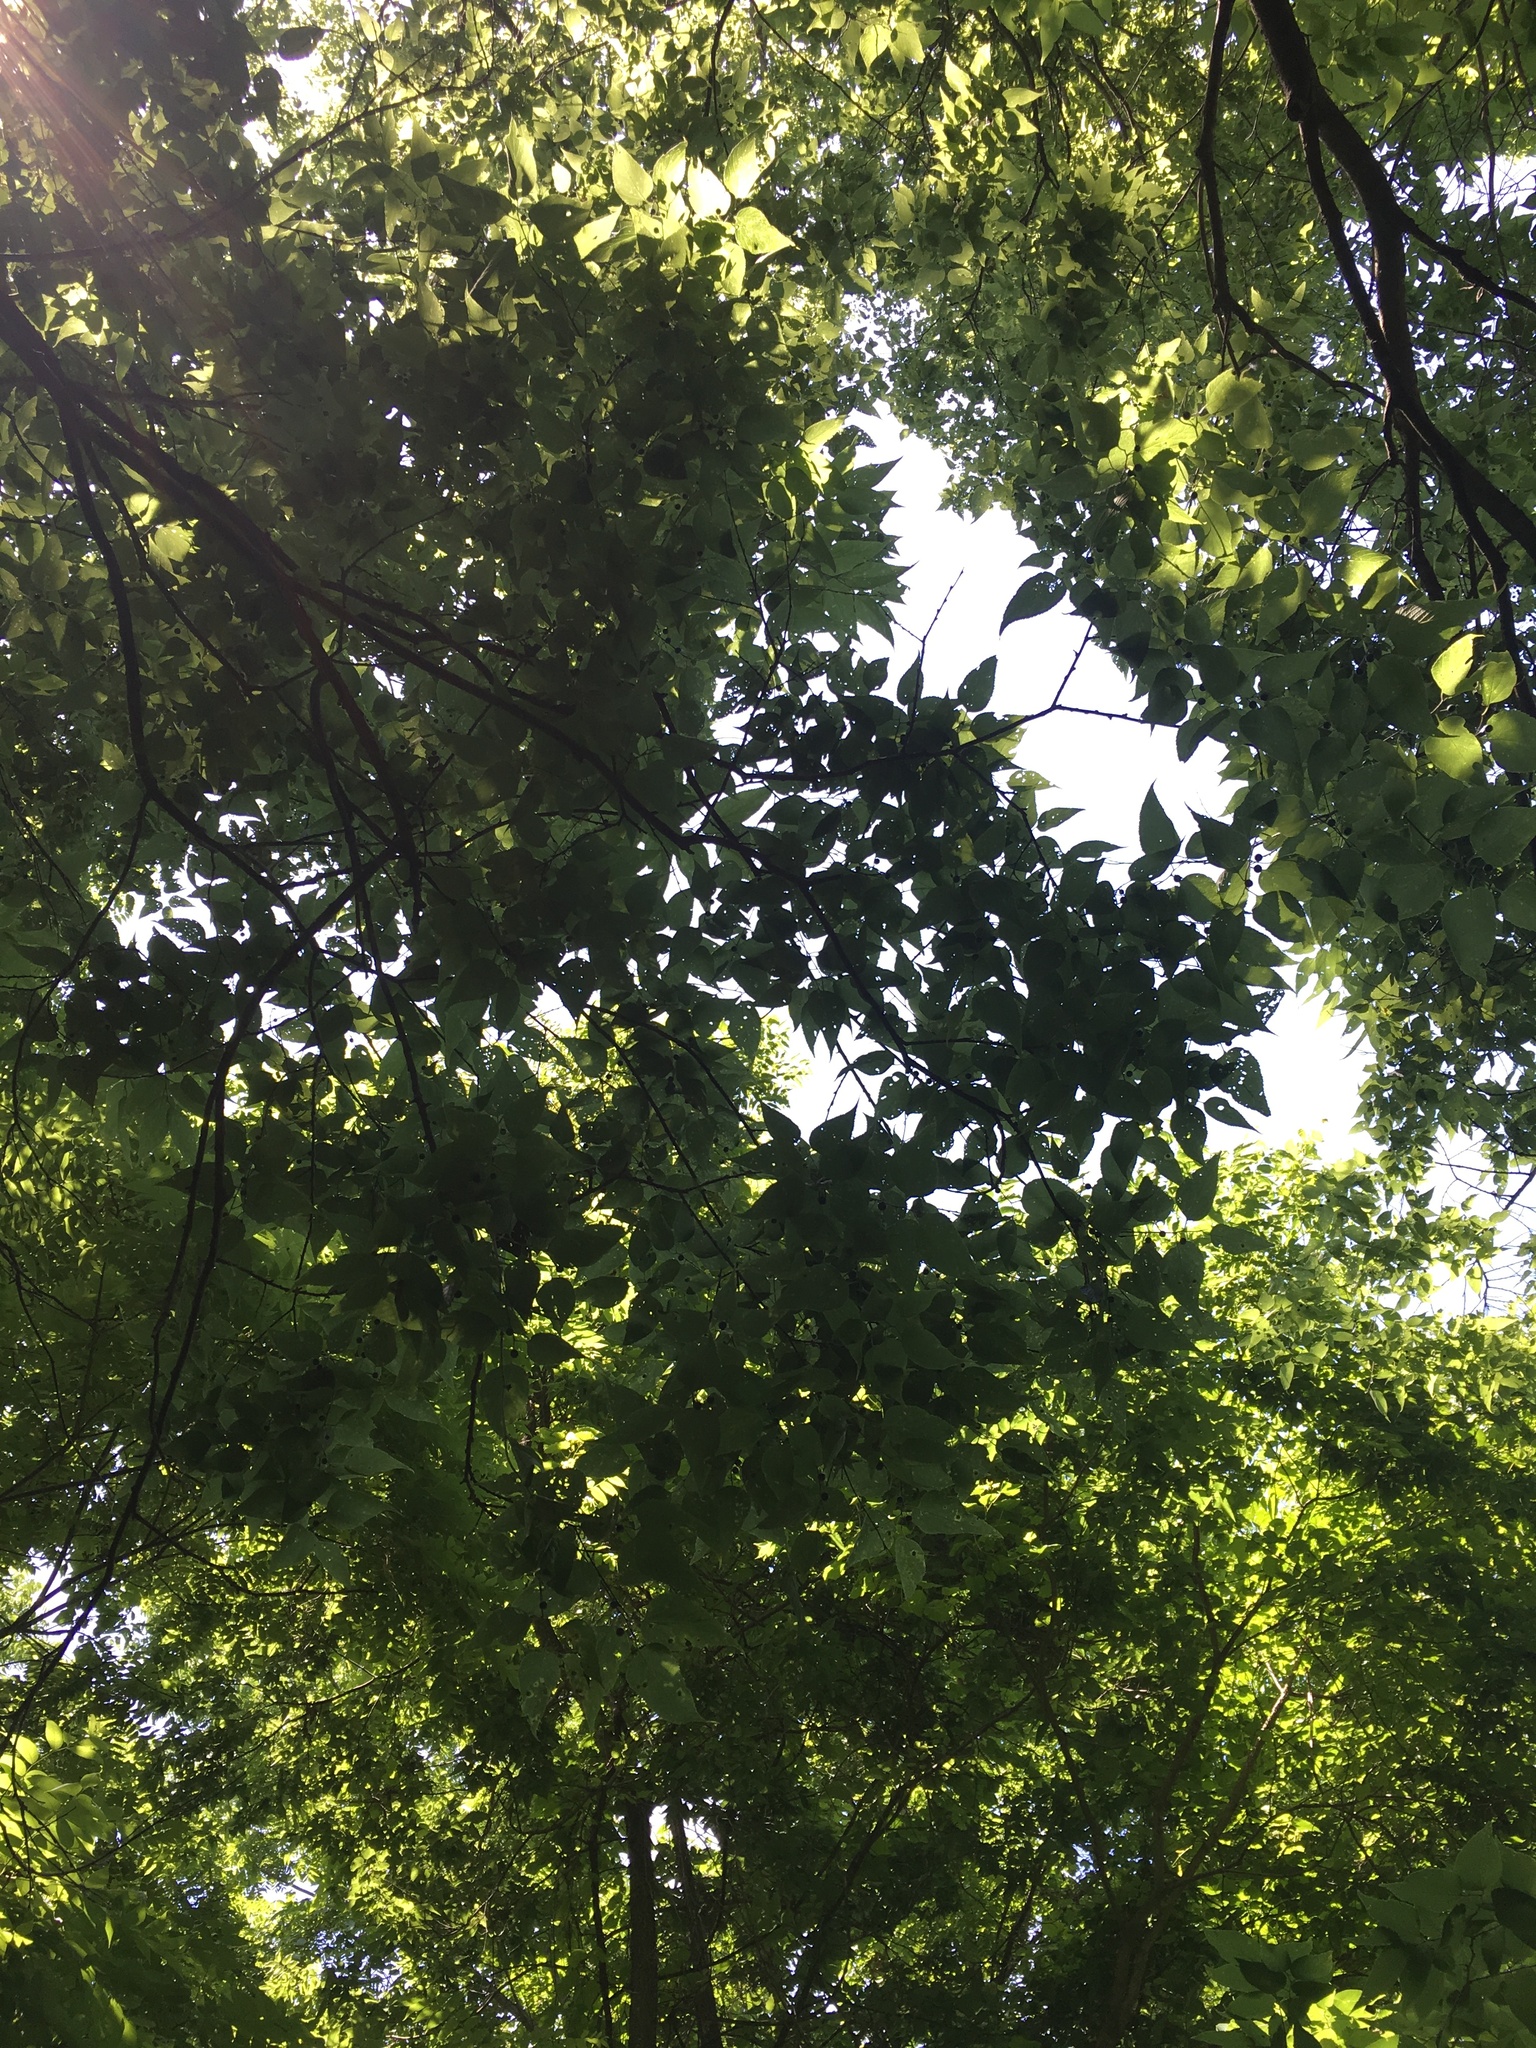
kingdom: Plantae
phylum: Tracheophyta
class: Magnoliopsida
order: Rosales
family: Cannabaceae
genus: Celtis
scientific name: Celtis occidentalis
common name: Common hackberry
